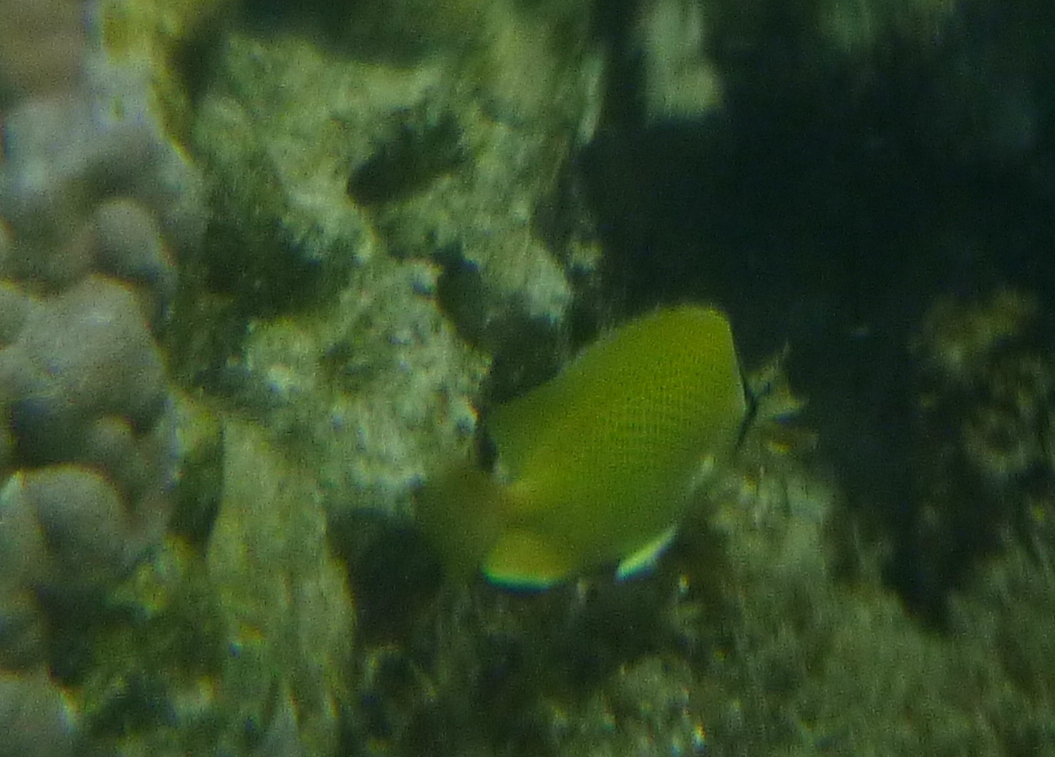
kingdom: Animalia
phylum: Chordata
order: Perciformes
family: Chaetodontidae
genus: Chaetodon
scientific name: Chaetodon citrinellus
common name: Speckled butterflyfish
